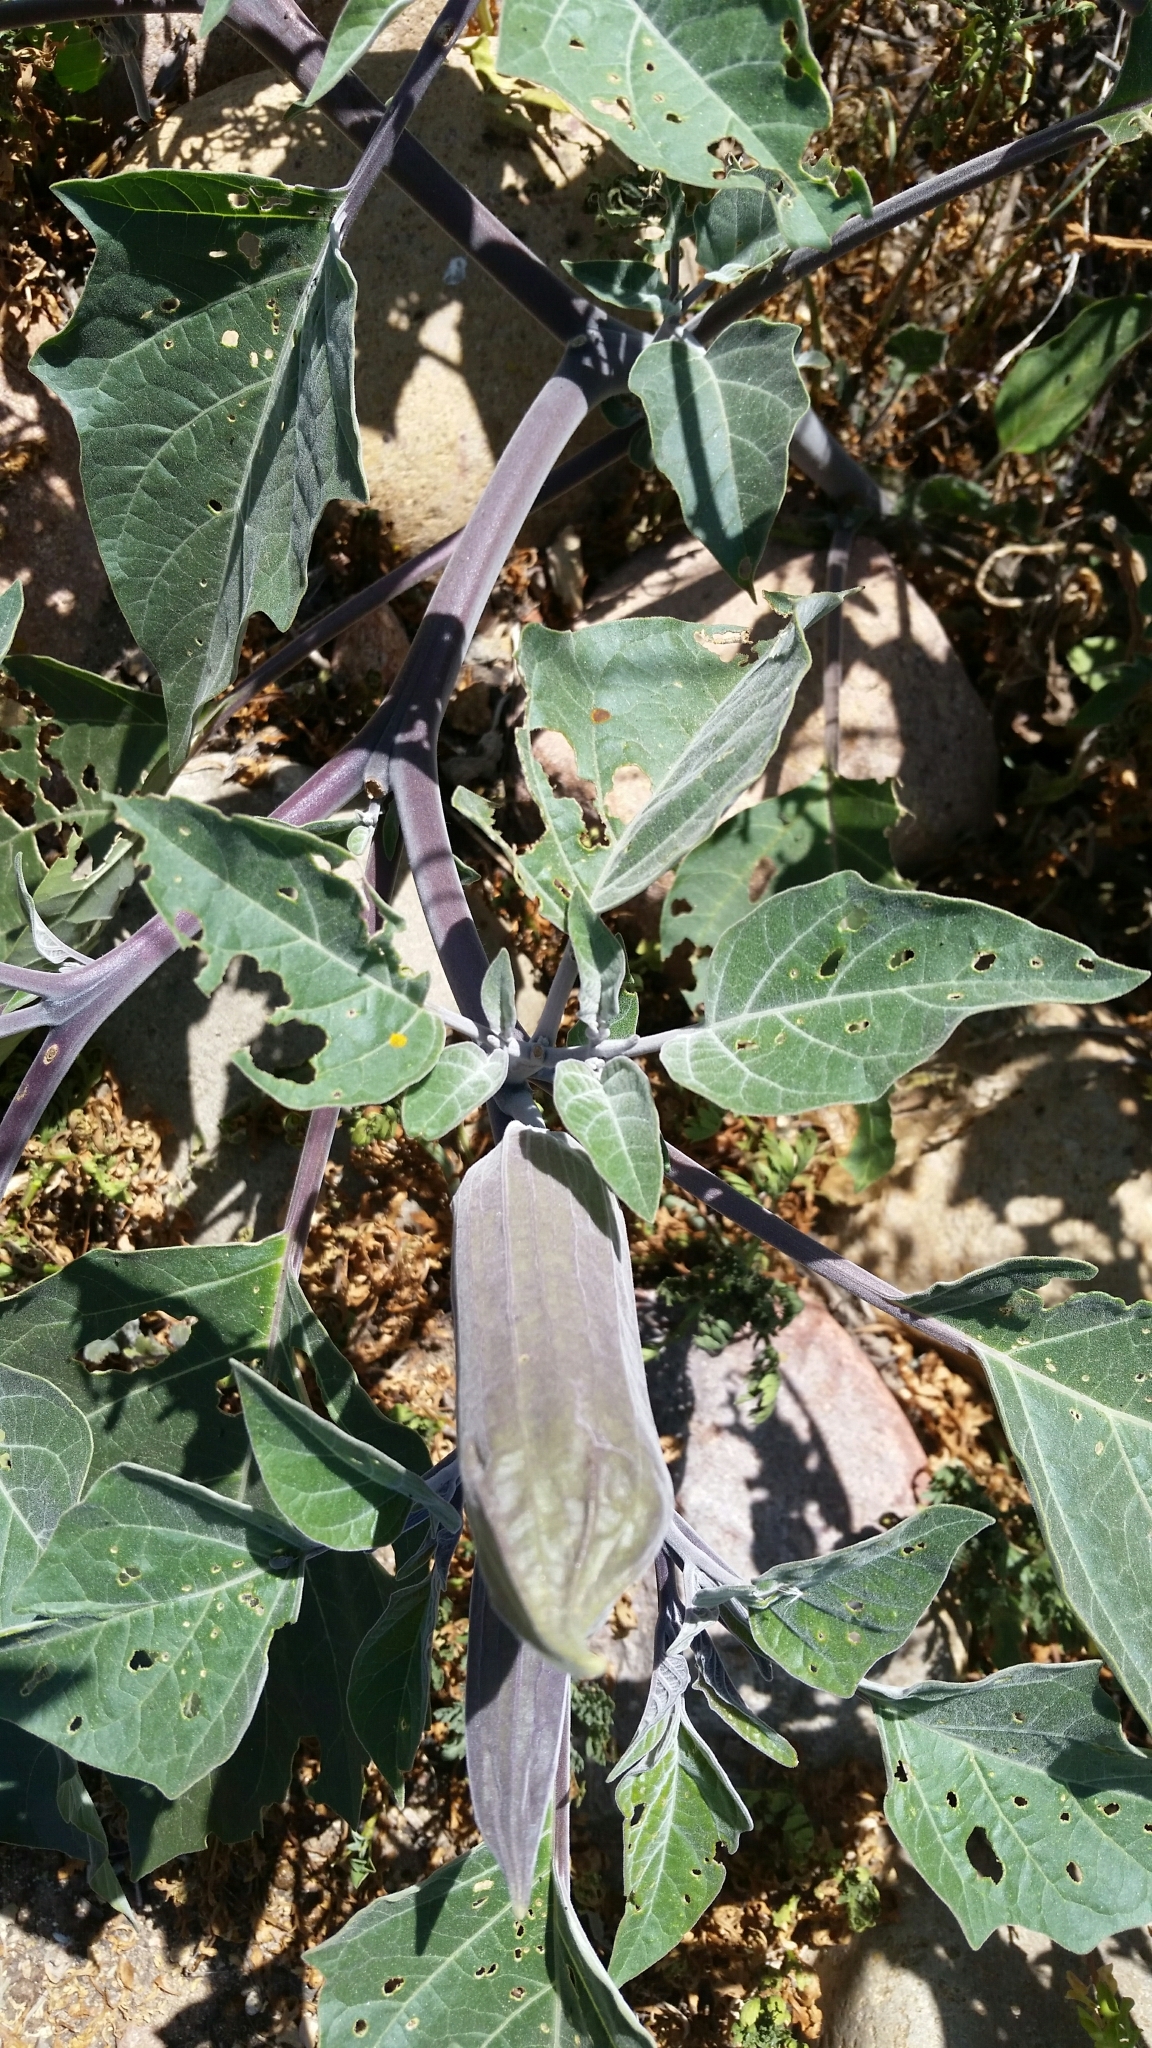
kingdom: Plantae
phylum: Tracheophyta
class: Magnoliopsida
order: Solanales
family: Solanaceae
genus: Datura
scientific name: Datura wrightii
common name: Sacred thorn-apple
